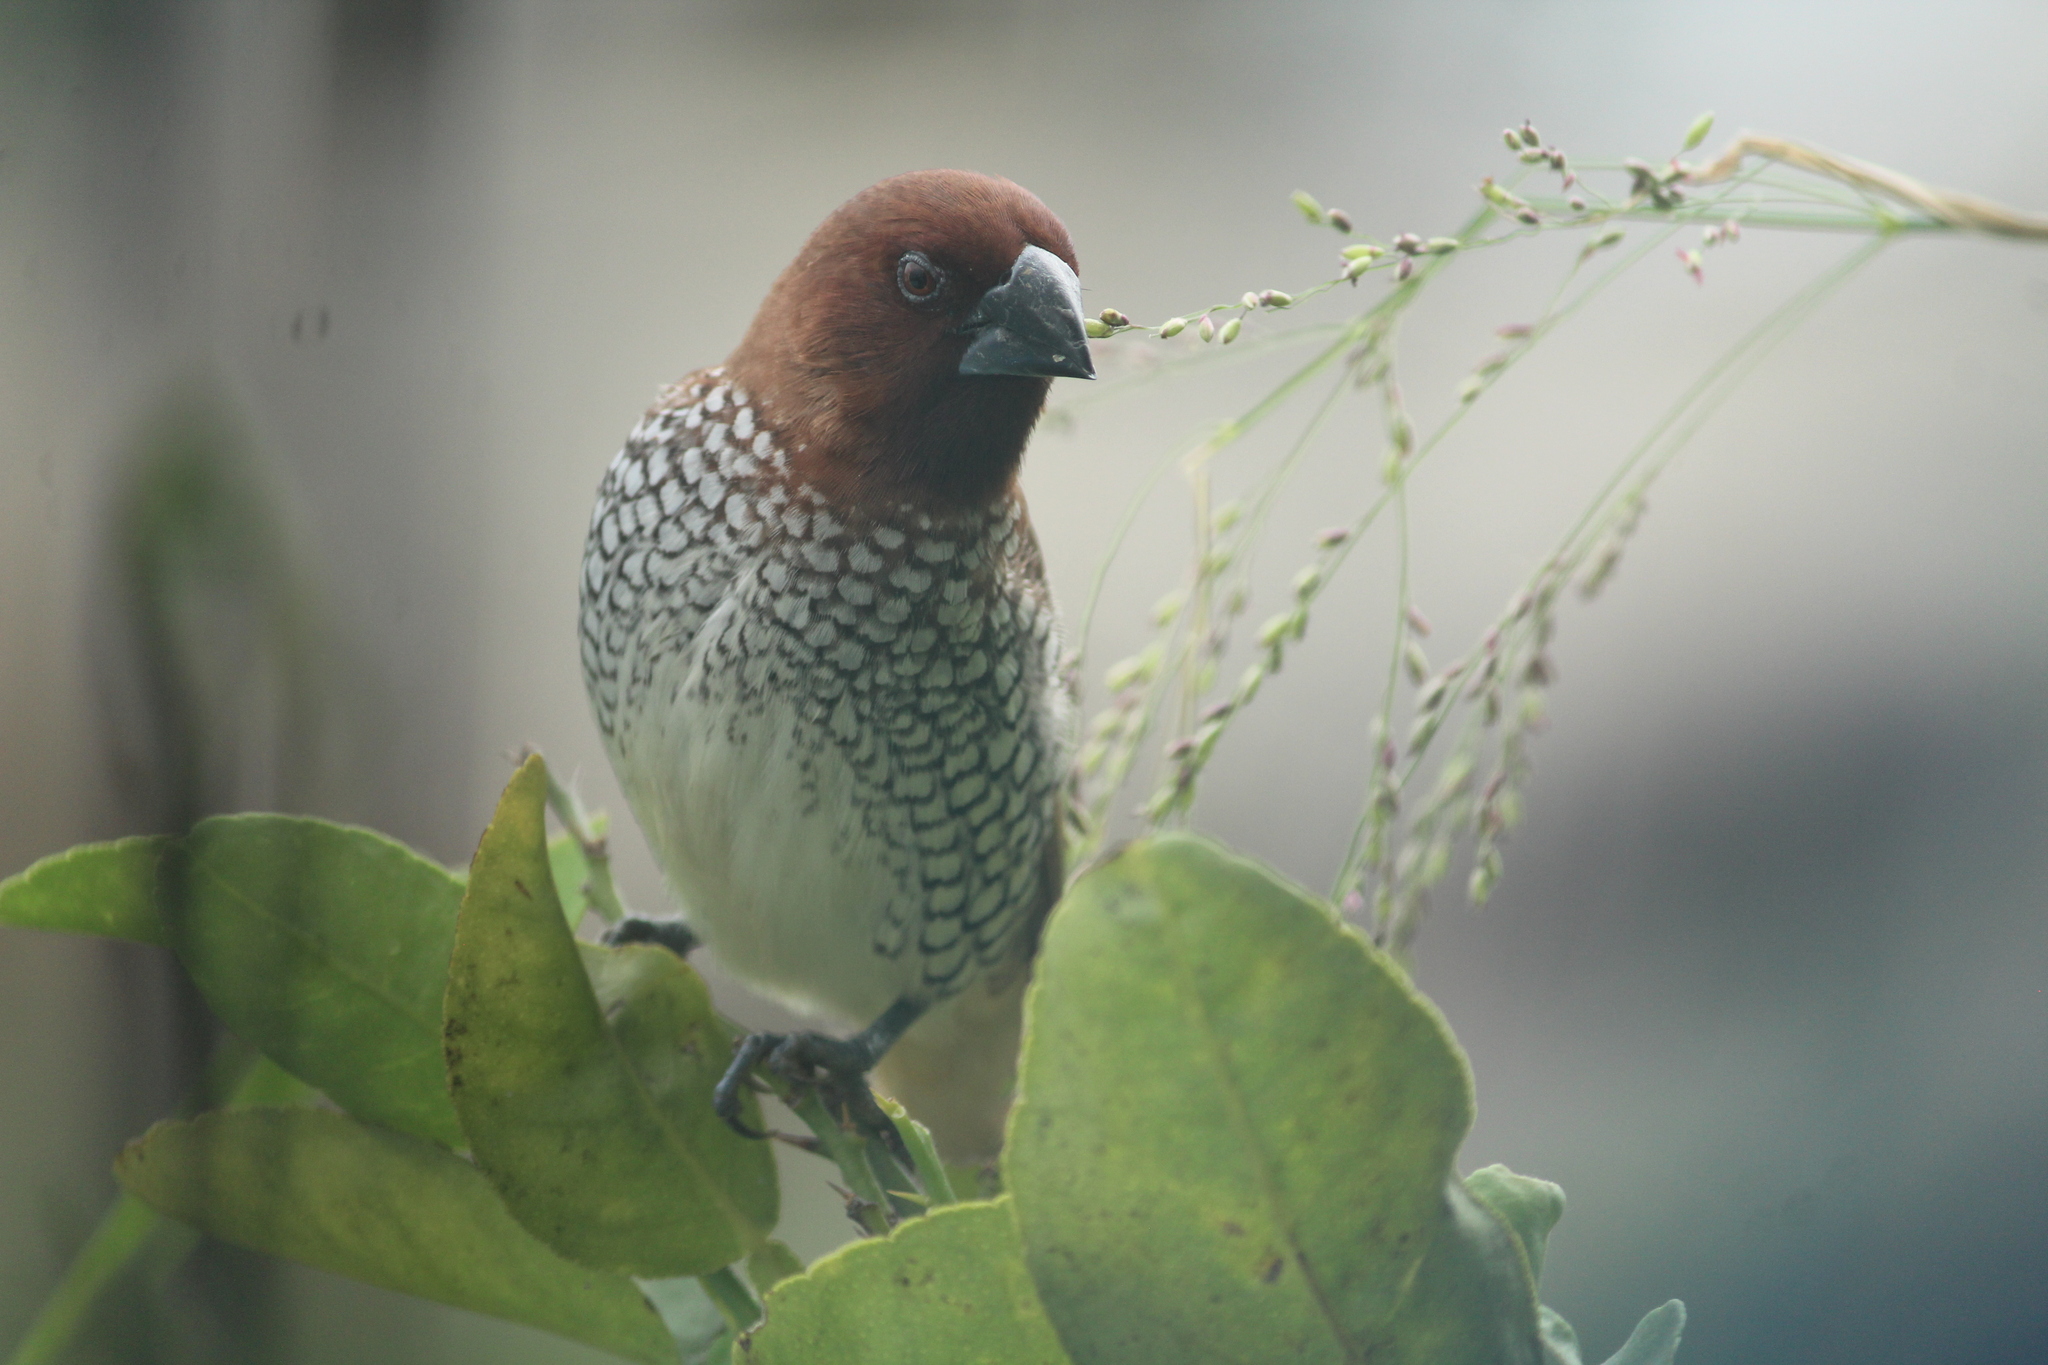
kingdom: Animalia
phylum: Chordata
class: Aves
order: Passeriformes
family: Estrildidae
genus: Lonchura
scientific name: Lonchura punctulata
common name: Scaly-breasted munia
